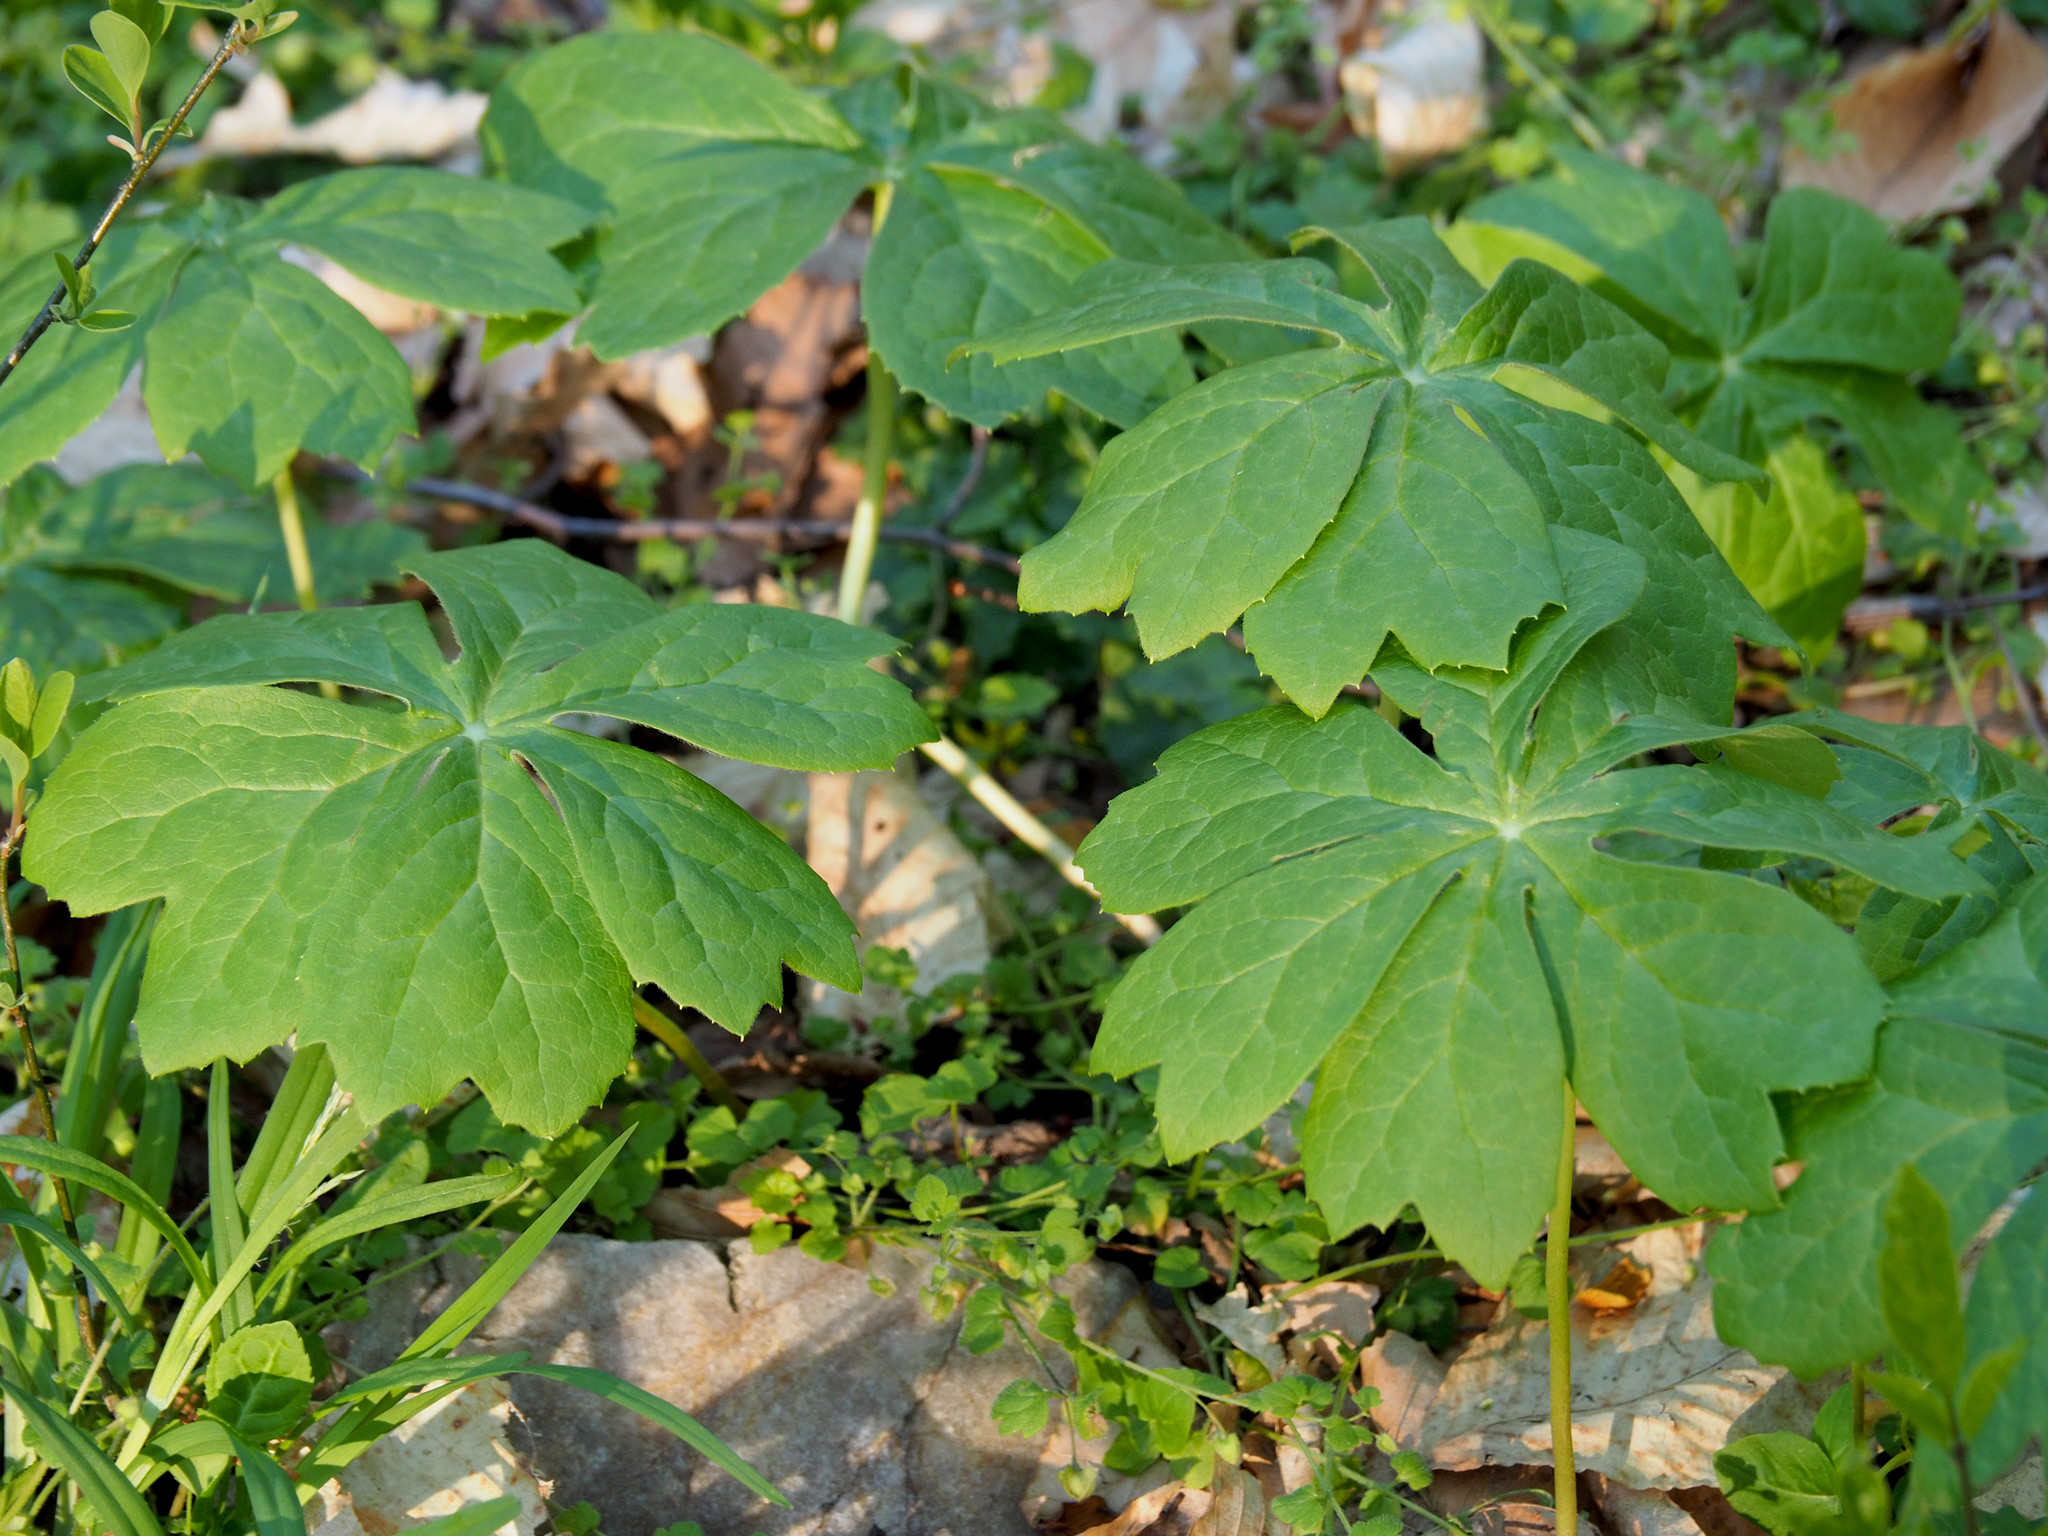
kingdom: Plantae
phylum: Tracheophyta
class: Magnoliopsida
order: Ranunculales
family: Berberidaceae
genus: Podophyllum
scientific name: Podophyllum peltatum
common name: Wild mandrake
